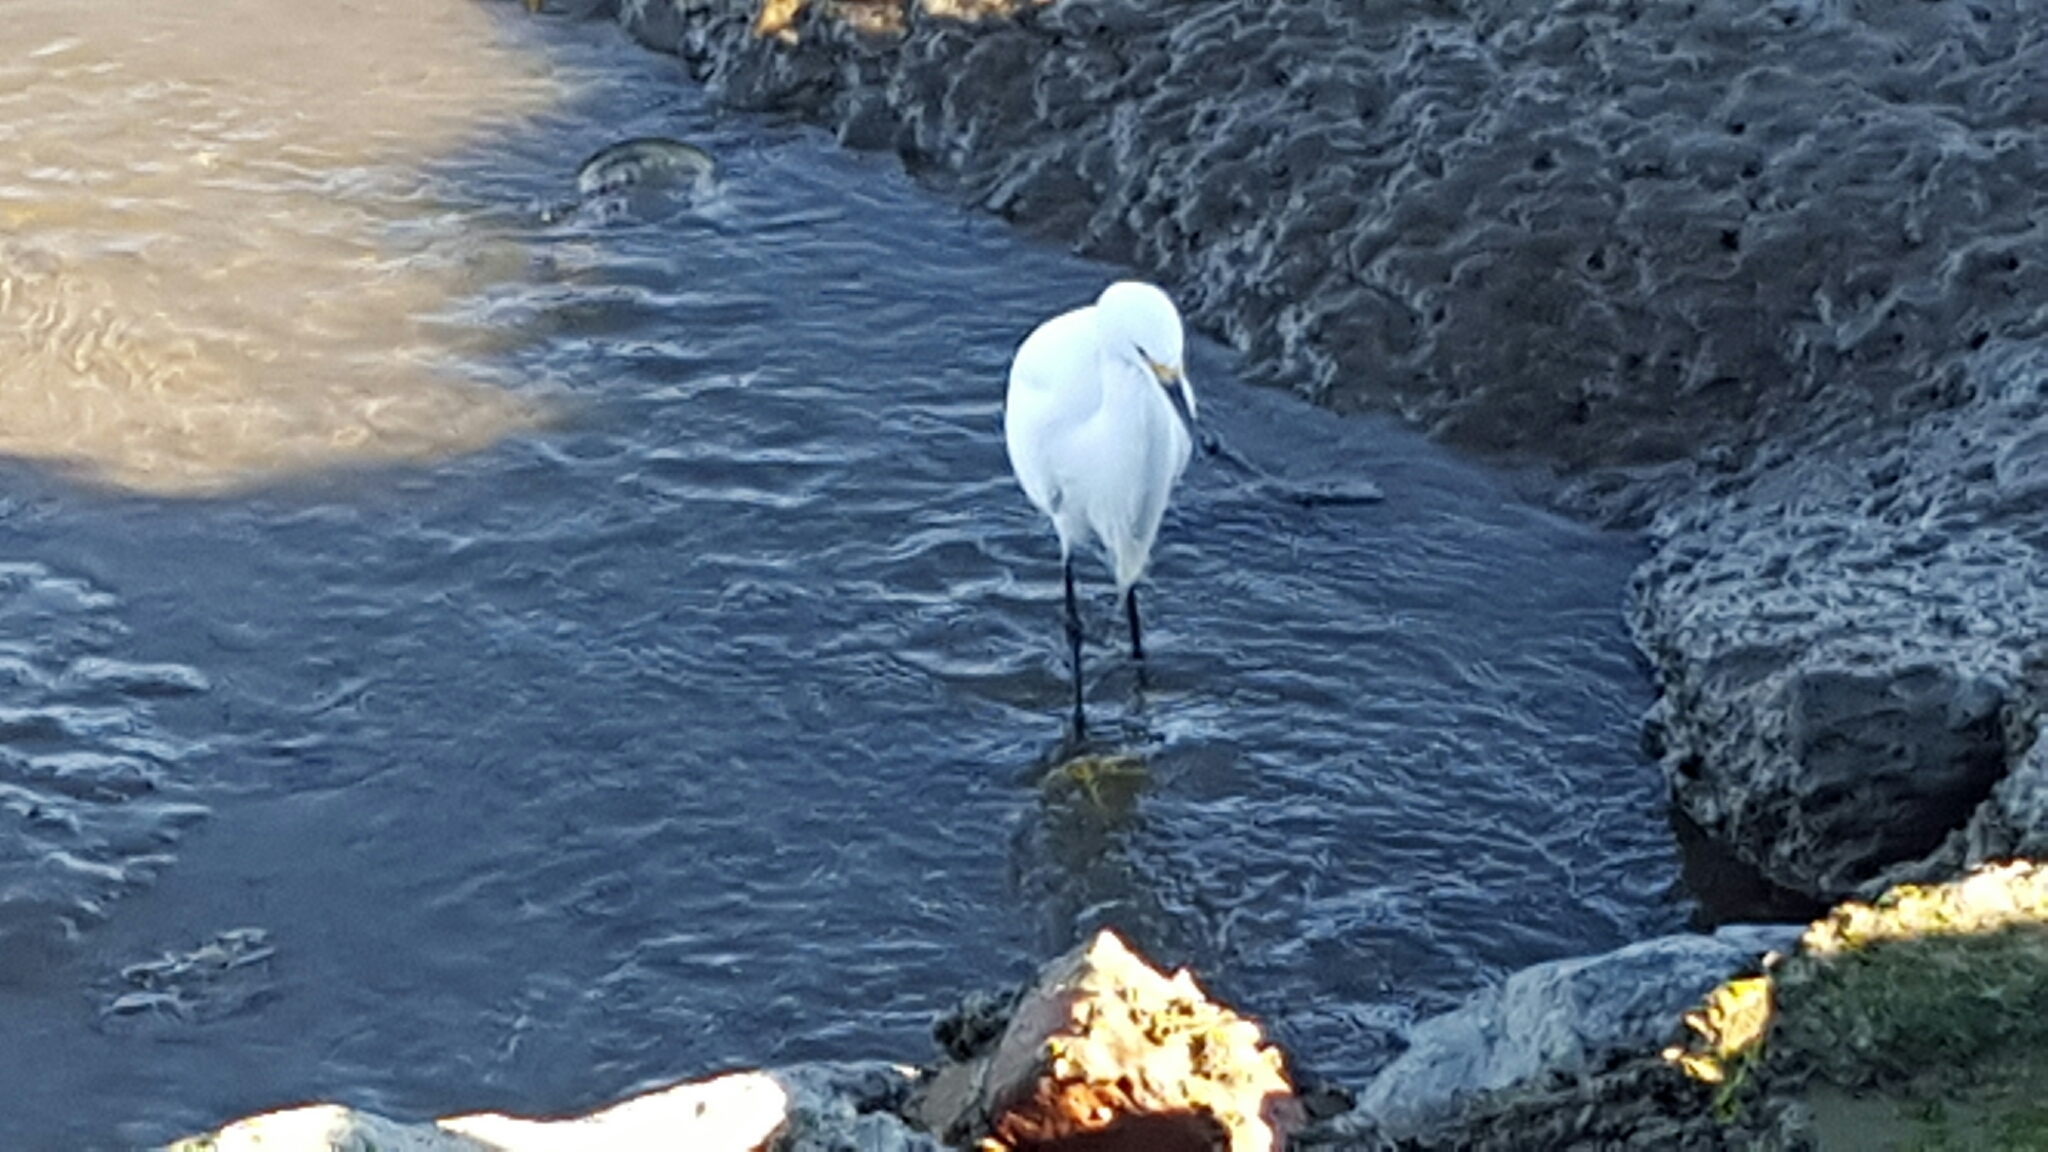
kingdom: Animalia
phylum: Chordata
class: Aves
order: Pelecaniformes
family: Ardeidae
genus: Egretta
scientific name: Egretta thula
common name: Snowy egret
